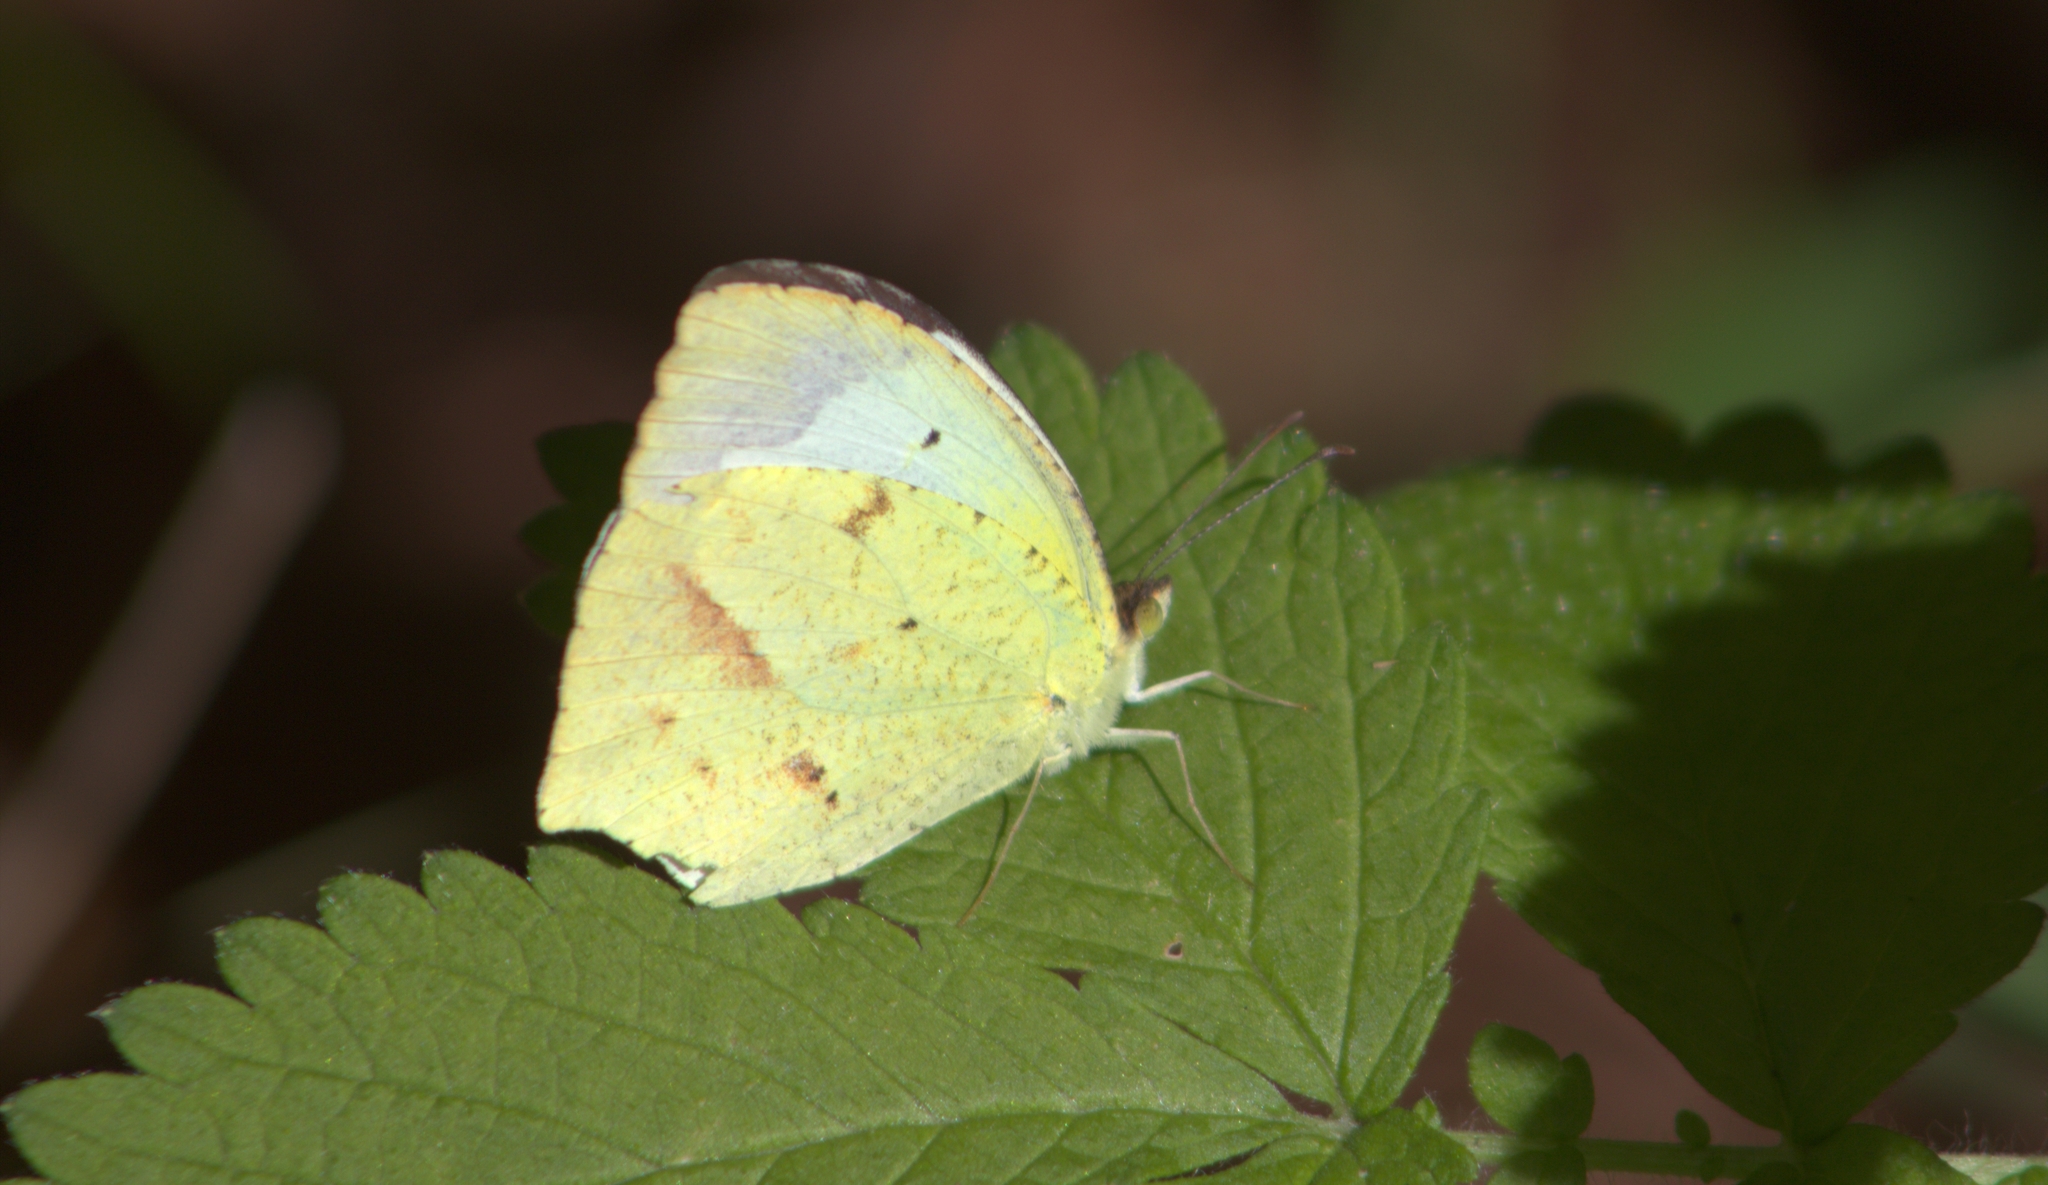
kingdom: Animalia
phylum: Arthropoda
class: Insecta
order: Lepidoptera
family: Pieridae
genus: Abaeis
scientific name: Abaeis mexicana
